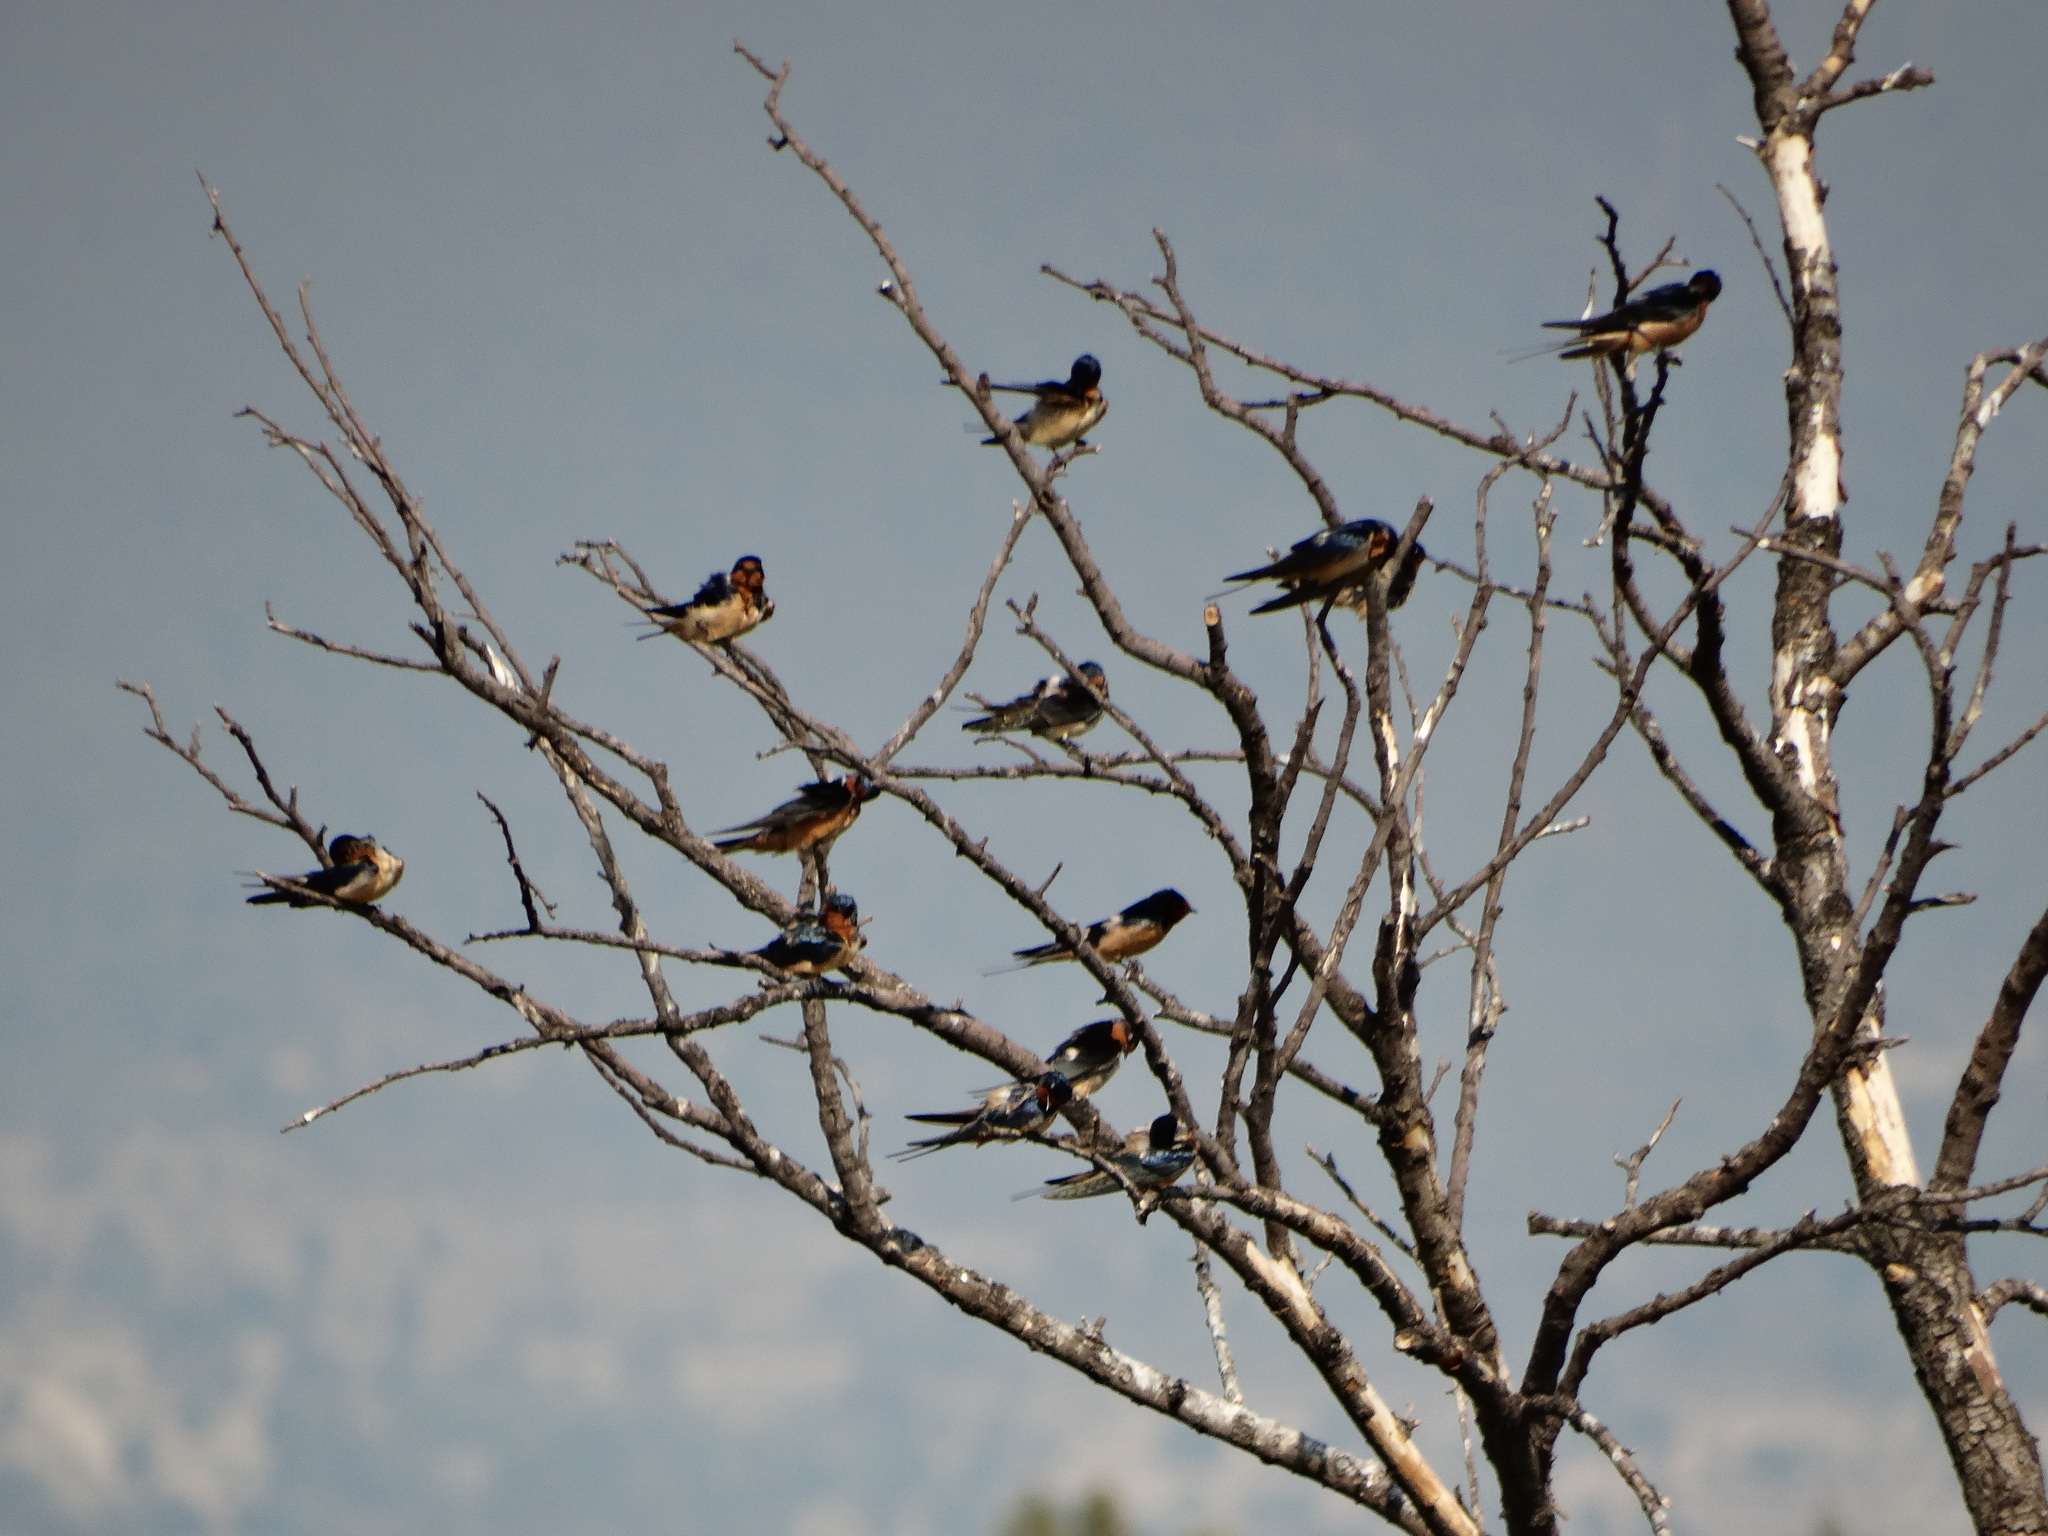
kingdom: Animalia
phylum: Chordata
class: Aves
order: Passeriformes
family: Hirundinidae
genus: Hirundo
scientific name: Hirundo rustica
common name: Barn swallow
